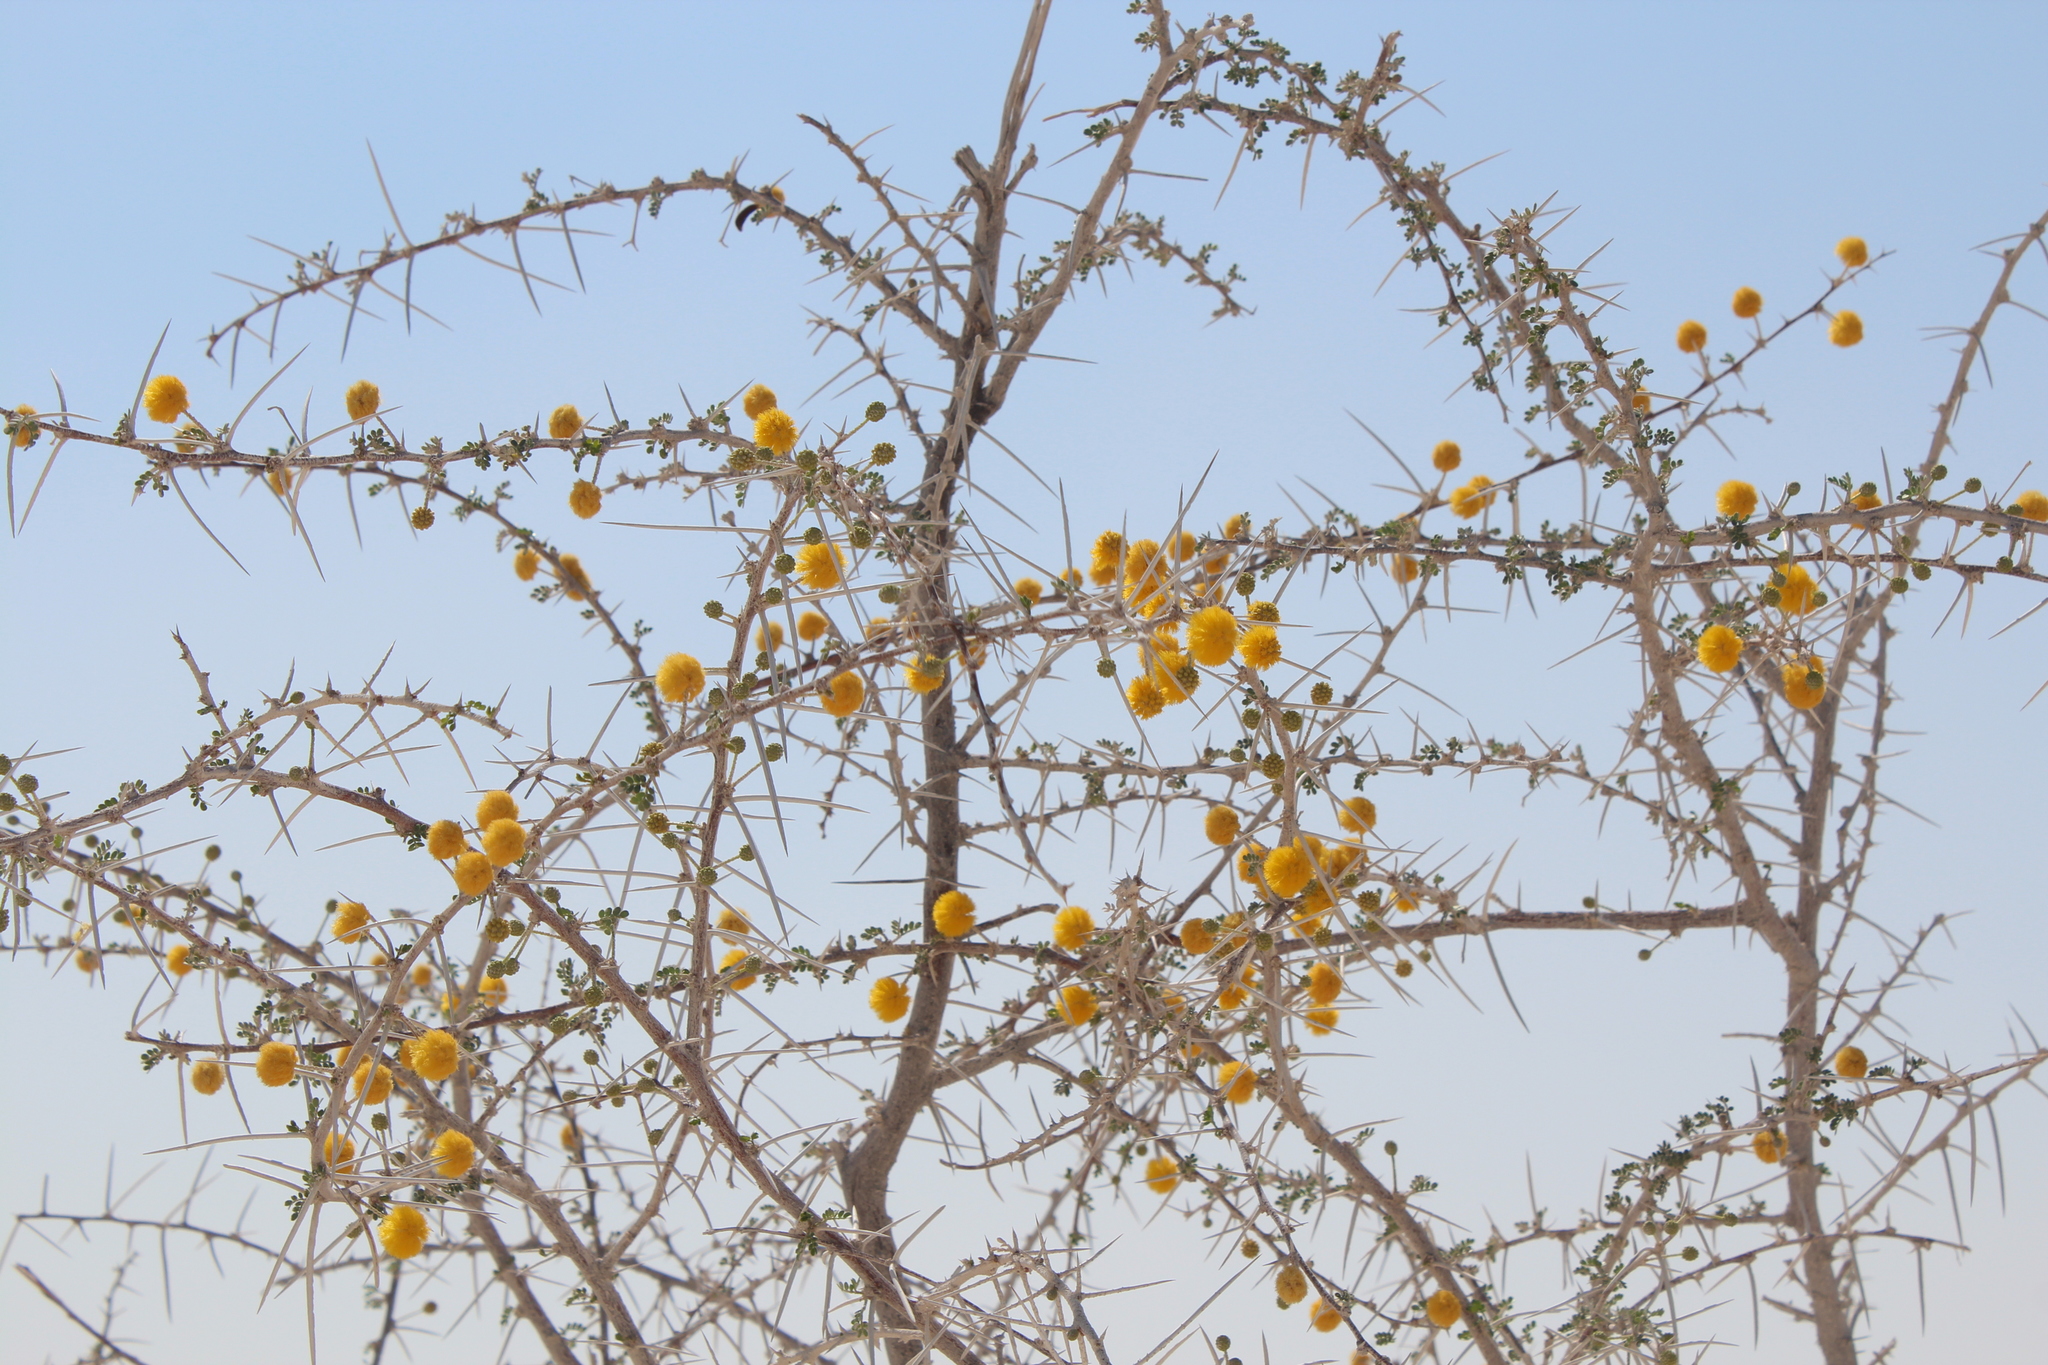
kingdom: Plantae
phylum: Tracheophyta
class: Magnoliopsida
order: Fabales
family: Fabaceae
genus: Vachellia
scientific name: Vachellia nebrownii
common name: Water acacia
